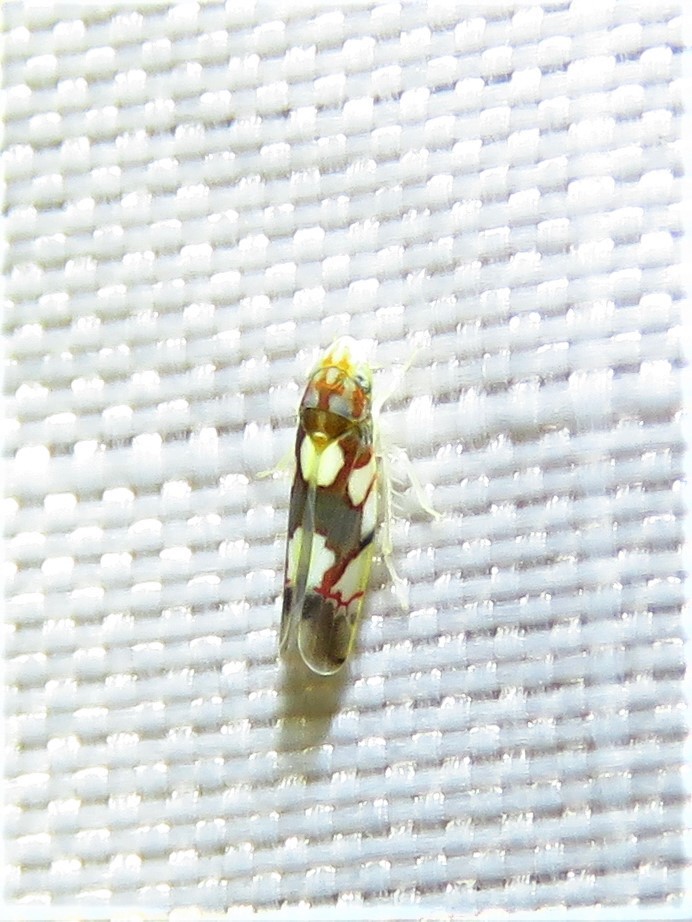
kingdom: Animalia
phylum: Arthropoda
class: Insecta
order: Hemiptera
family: Cicadellidae
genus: Erythroneura
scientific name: Erythroneura elegans
